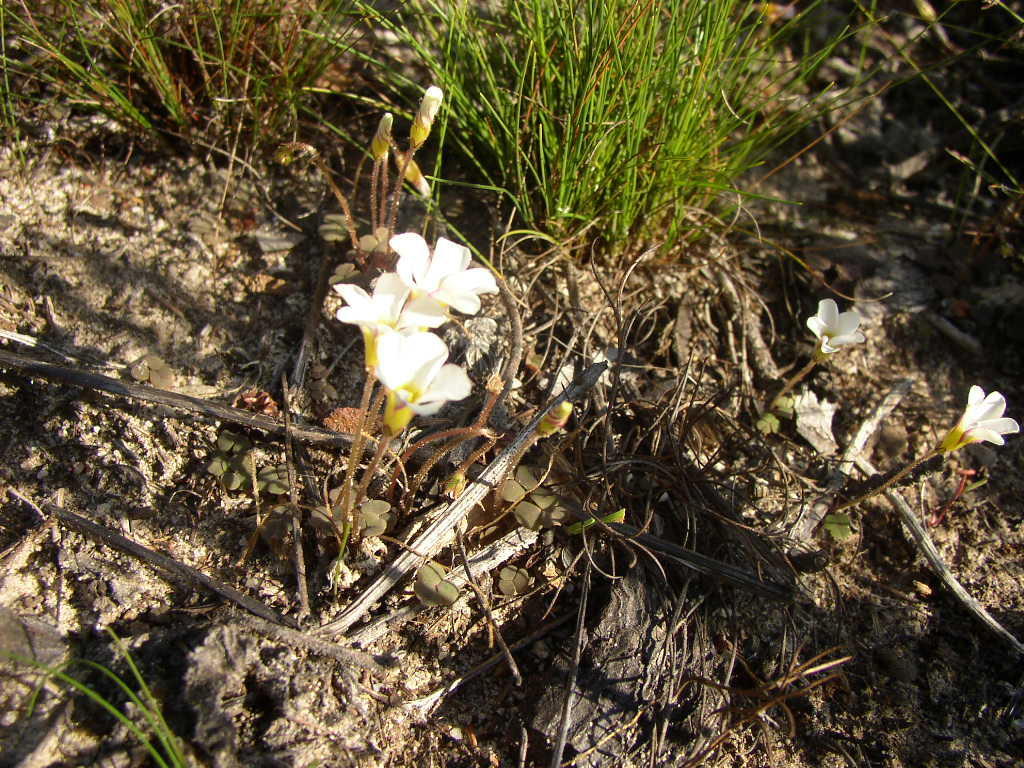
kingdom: Plantae
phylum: Tracheophyta
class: Magnoliopsida
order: Oxalidales
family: Oxalidaceae
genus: Oxalis
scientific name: Oxalis punctata
